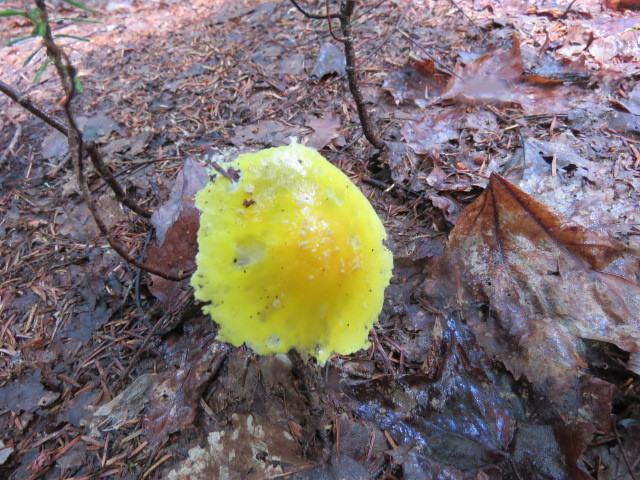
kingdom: Fungi
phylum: Basidiomycota
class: Agaricomycetes
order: Agaricales
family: Amanitaceae
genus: Amanita
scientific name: Amanita muscaria
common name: Fly agaric
